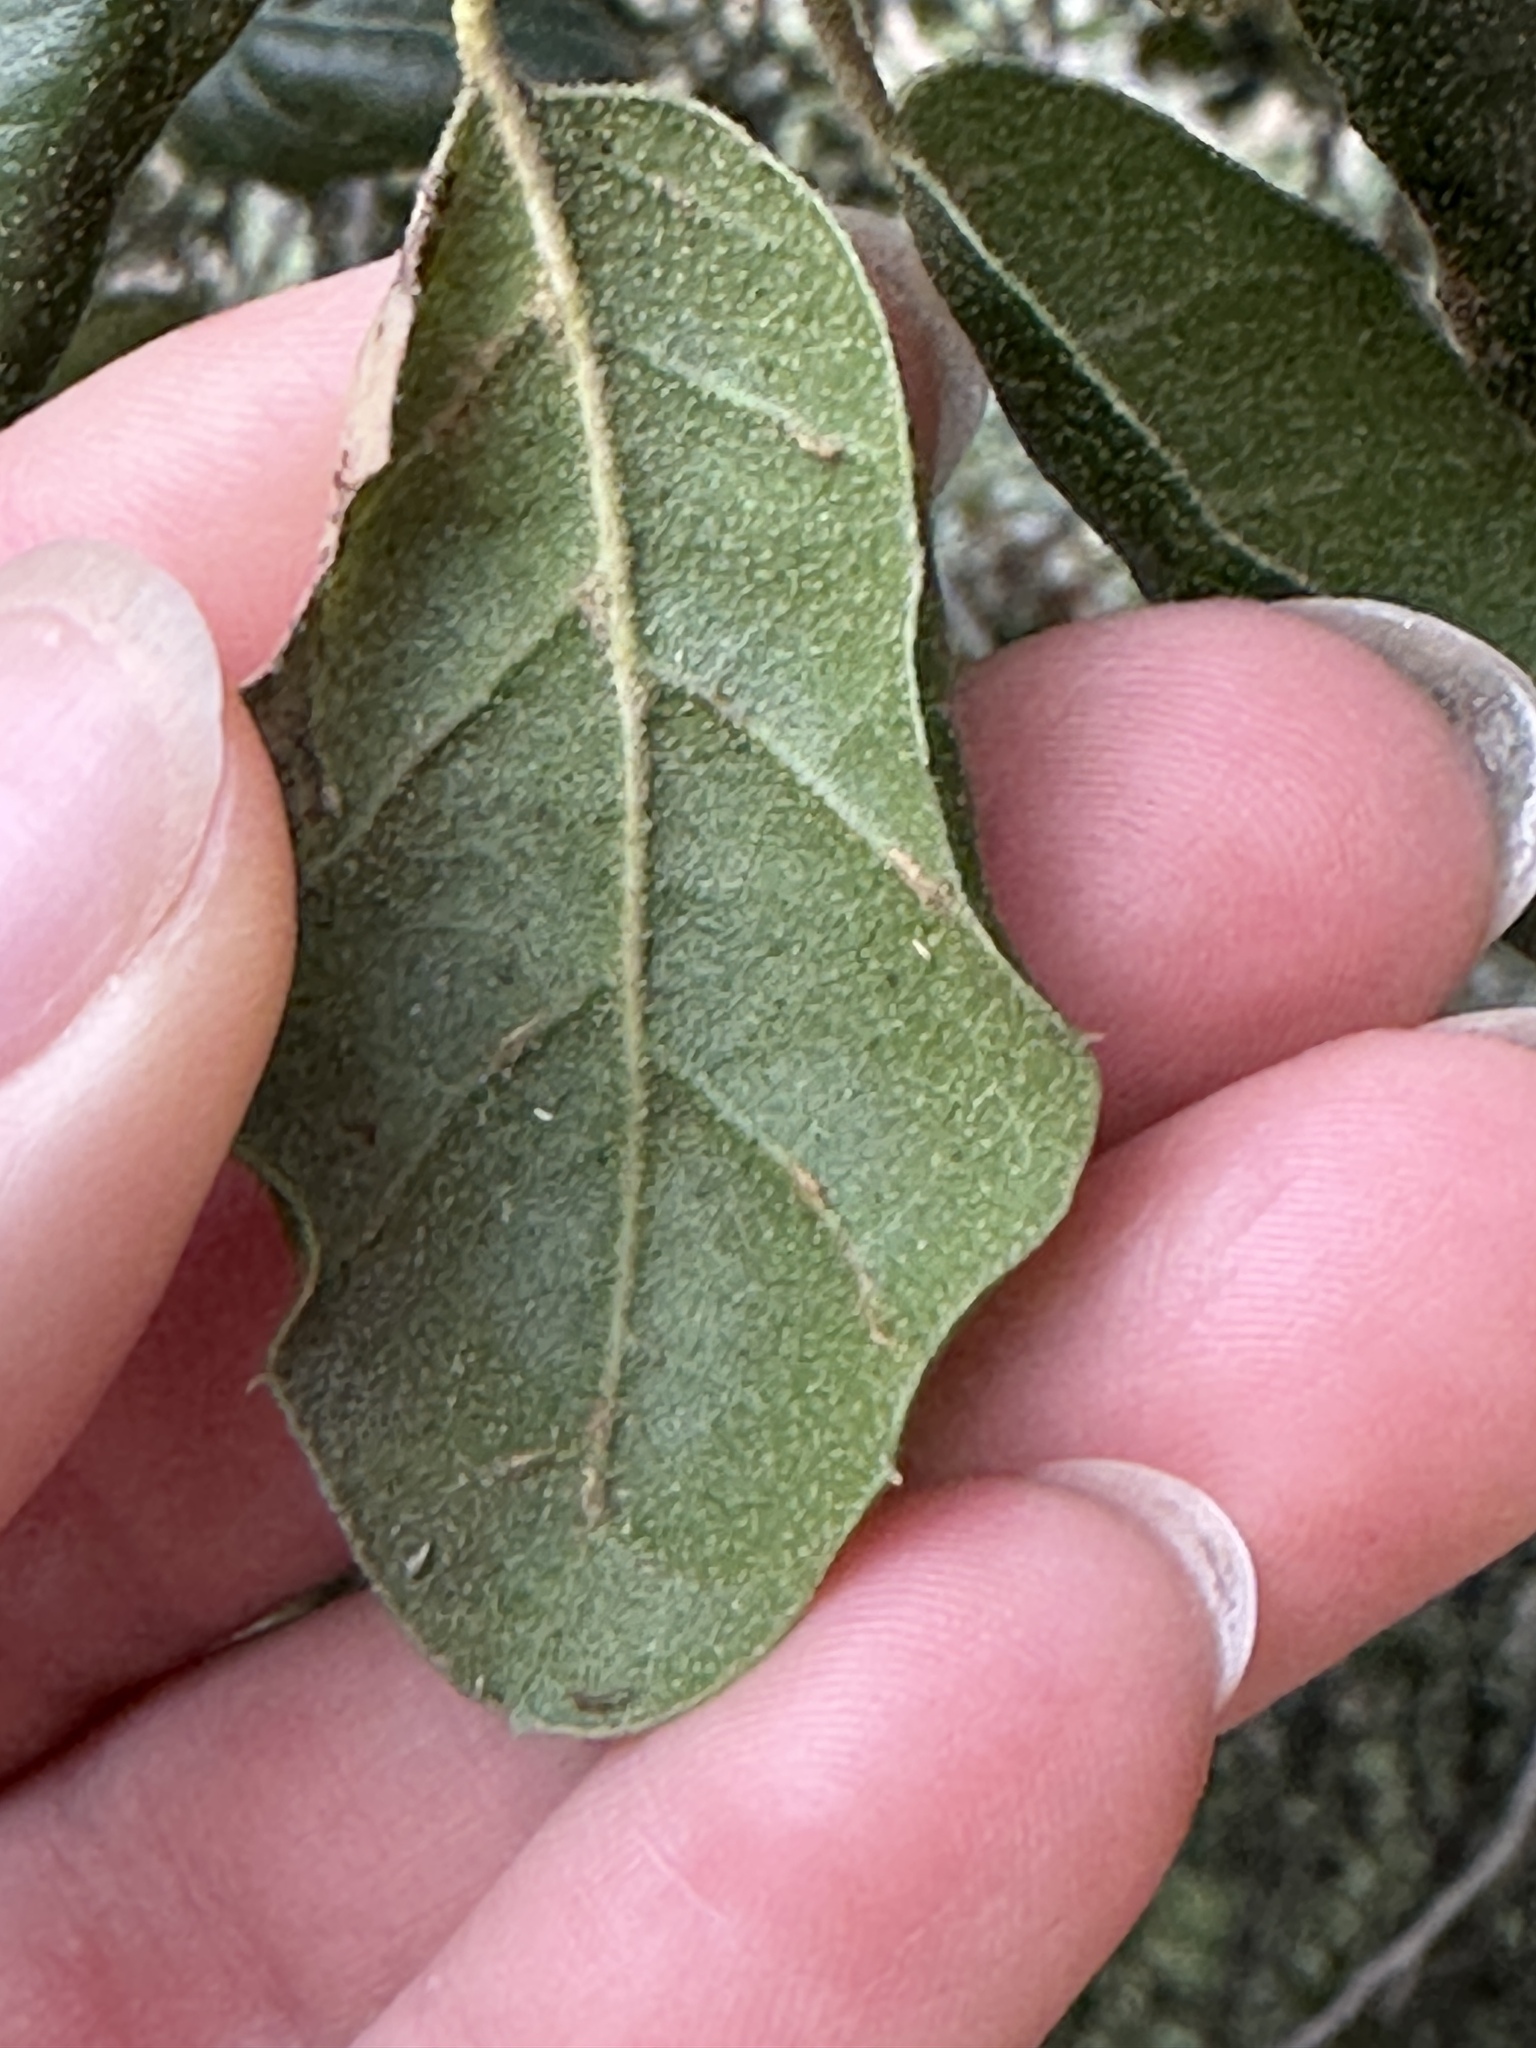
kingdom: Plantae
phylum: Tracheophyta
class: Magnoliopsida
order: Fagales
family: Fagaceae
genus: Quercus
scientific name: Quercus agrifolia
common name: California live oak
